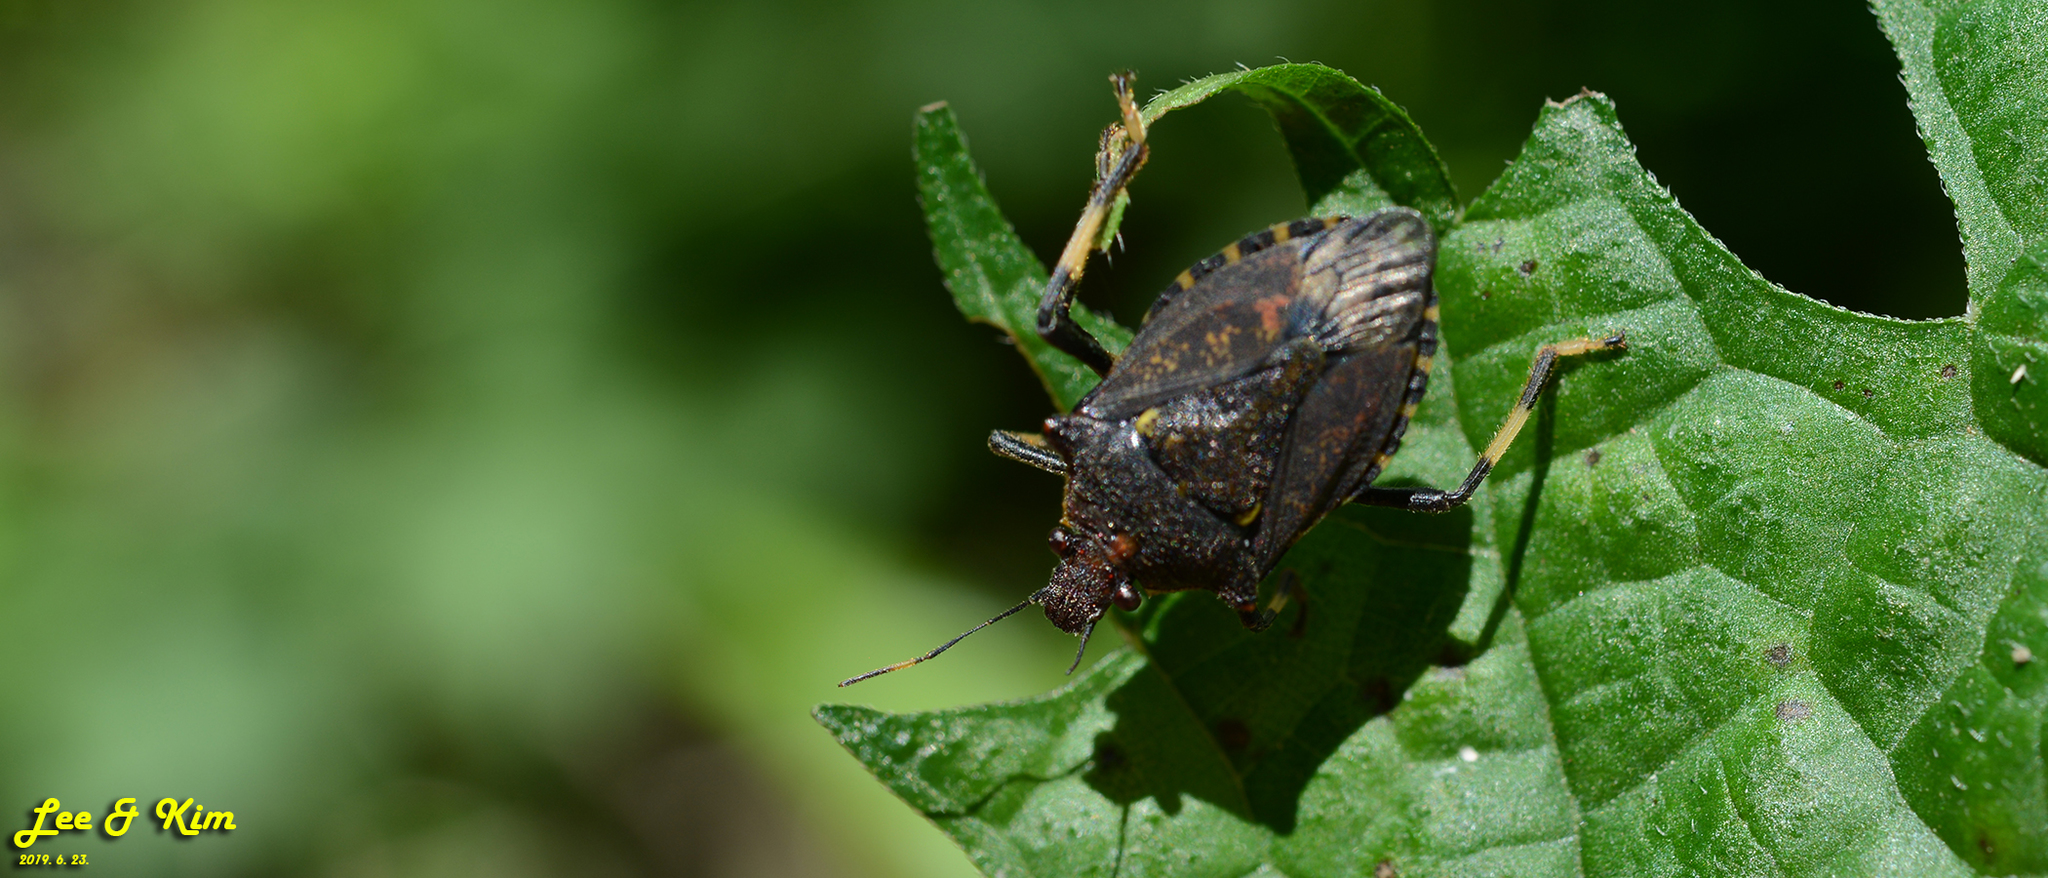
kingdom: Animalia
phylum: Arthropoda
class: Insecta
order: Hemiptera
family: Pentatomidae
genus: Dalpada
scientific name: Dalpada cinctipes
